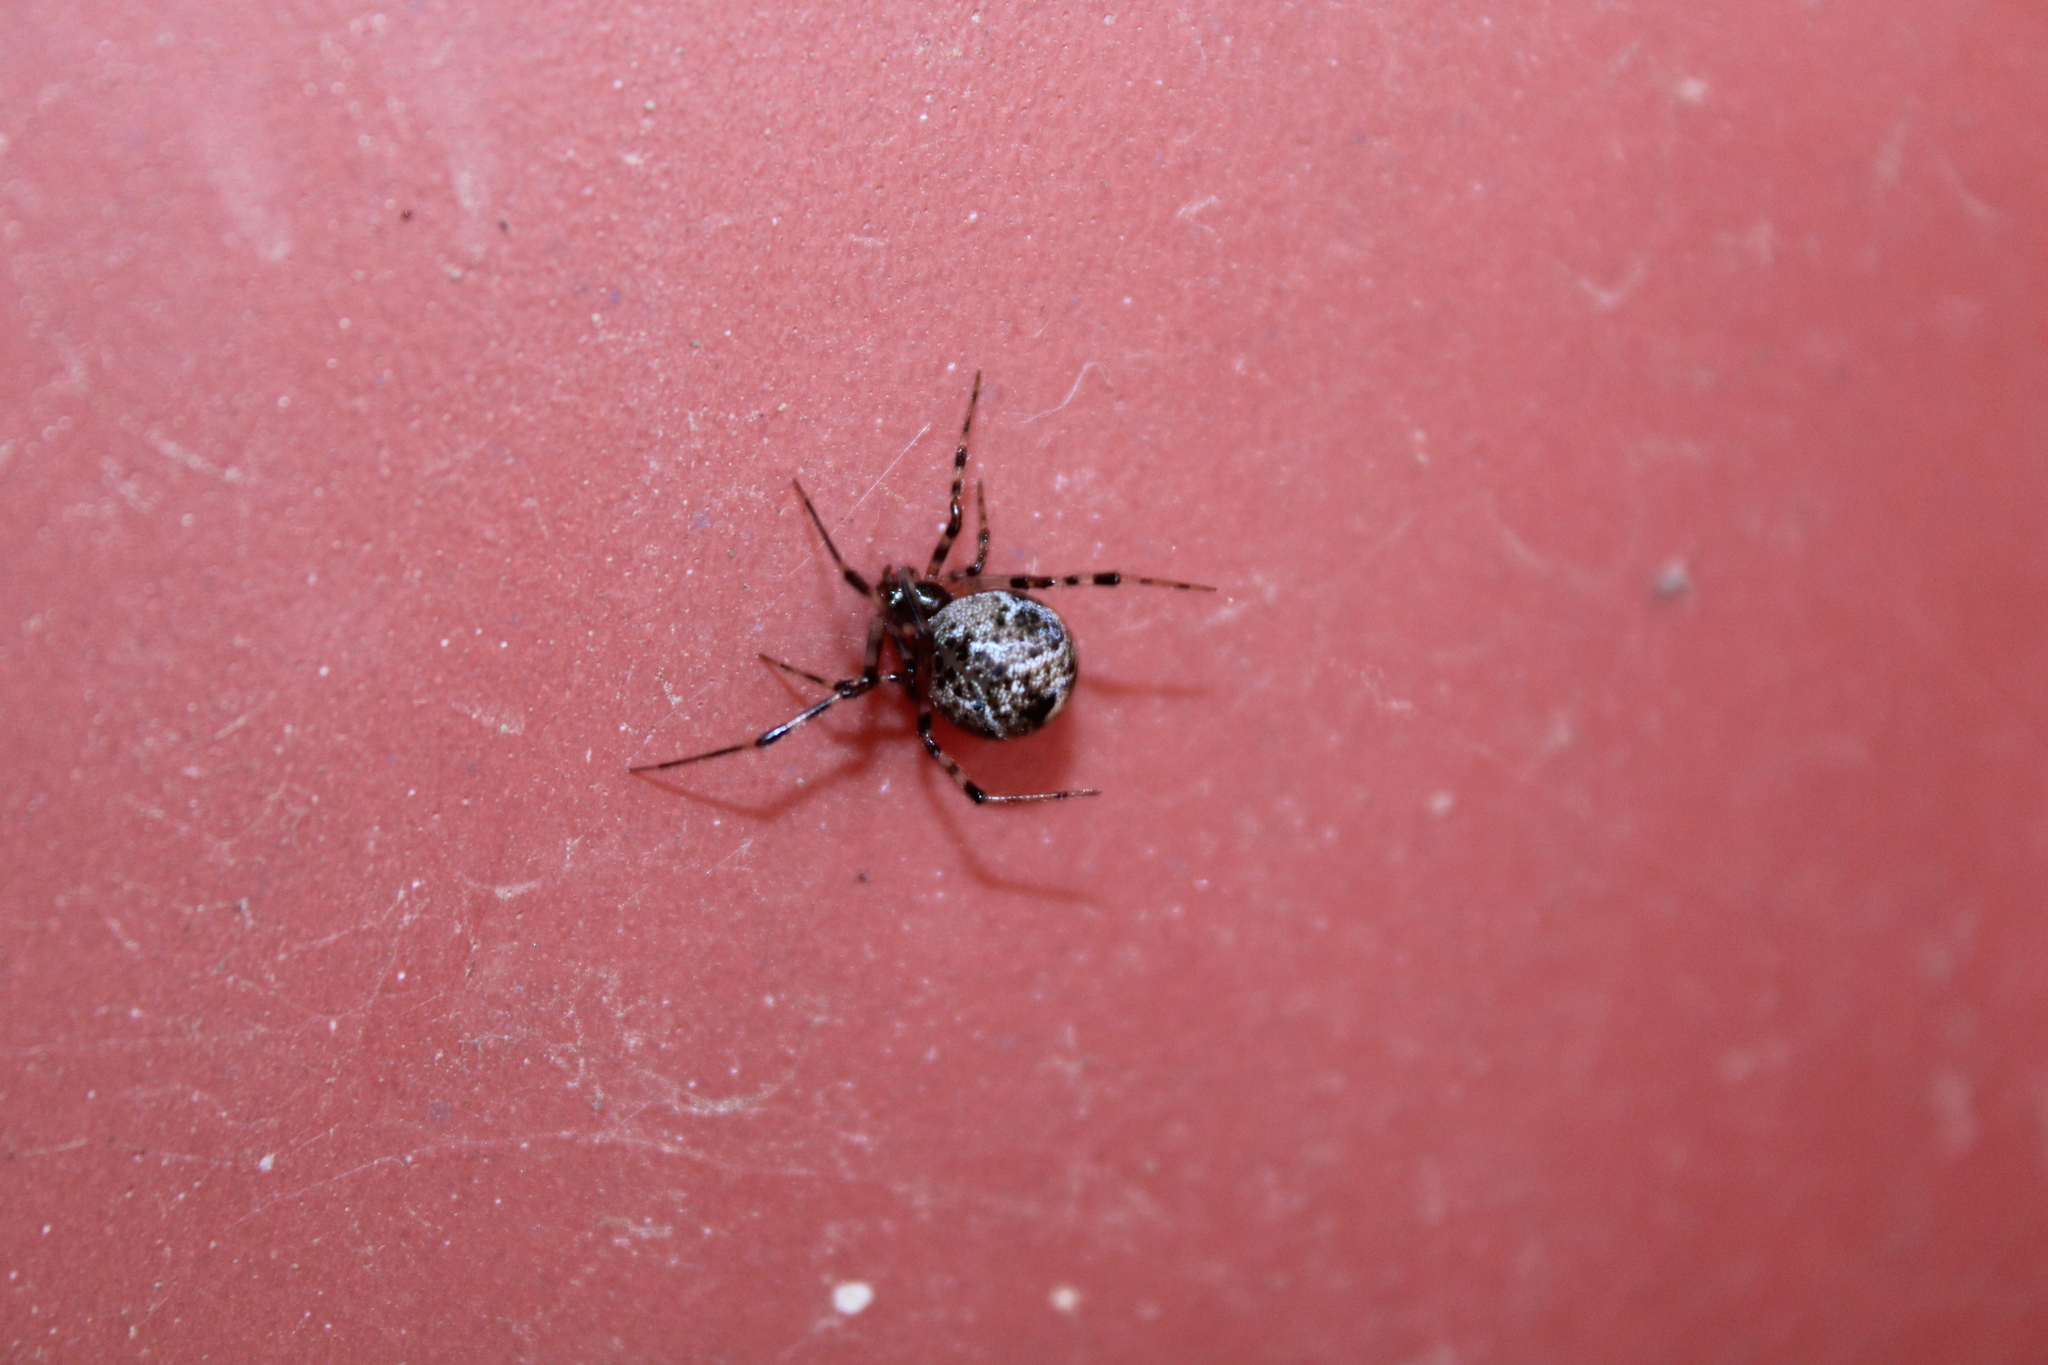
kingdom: Animalia
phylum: Arthropoda
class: Arachnida
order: Araneae
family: Theridiidae
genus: Parasteatoda
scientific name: Parasteatoda tepidariorum
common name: Common house spider
